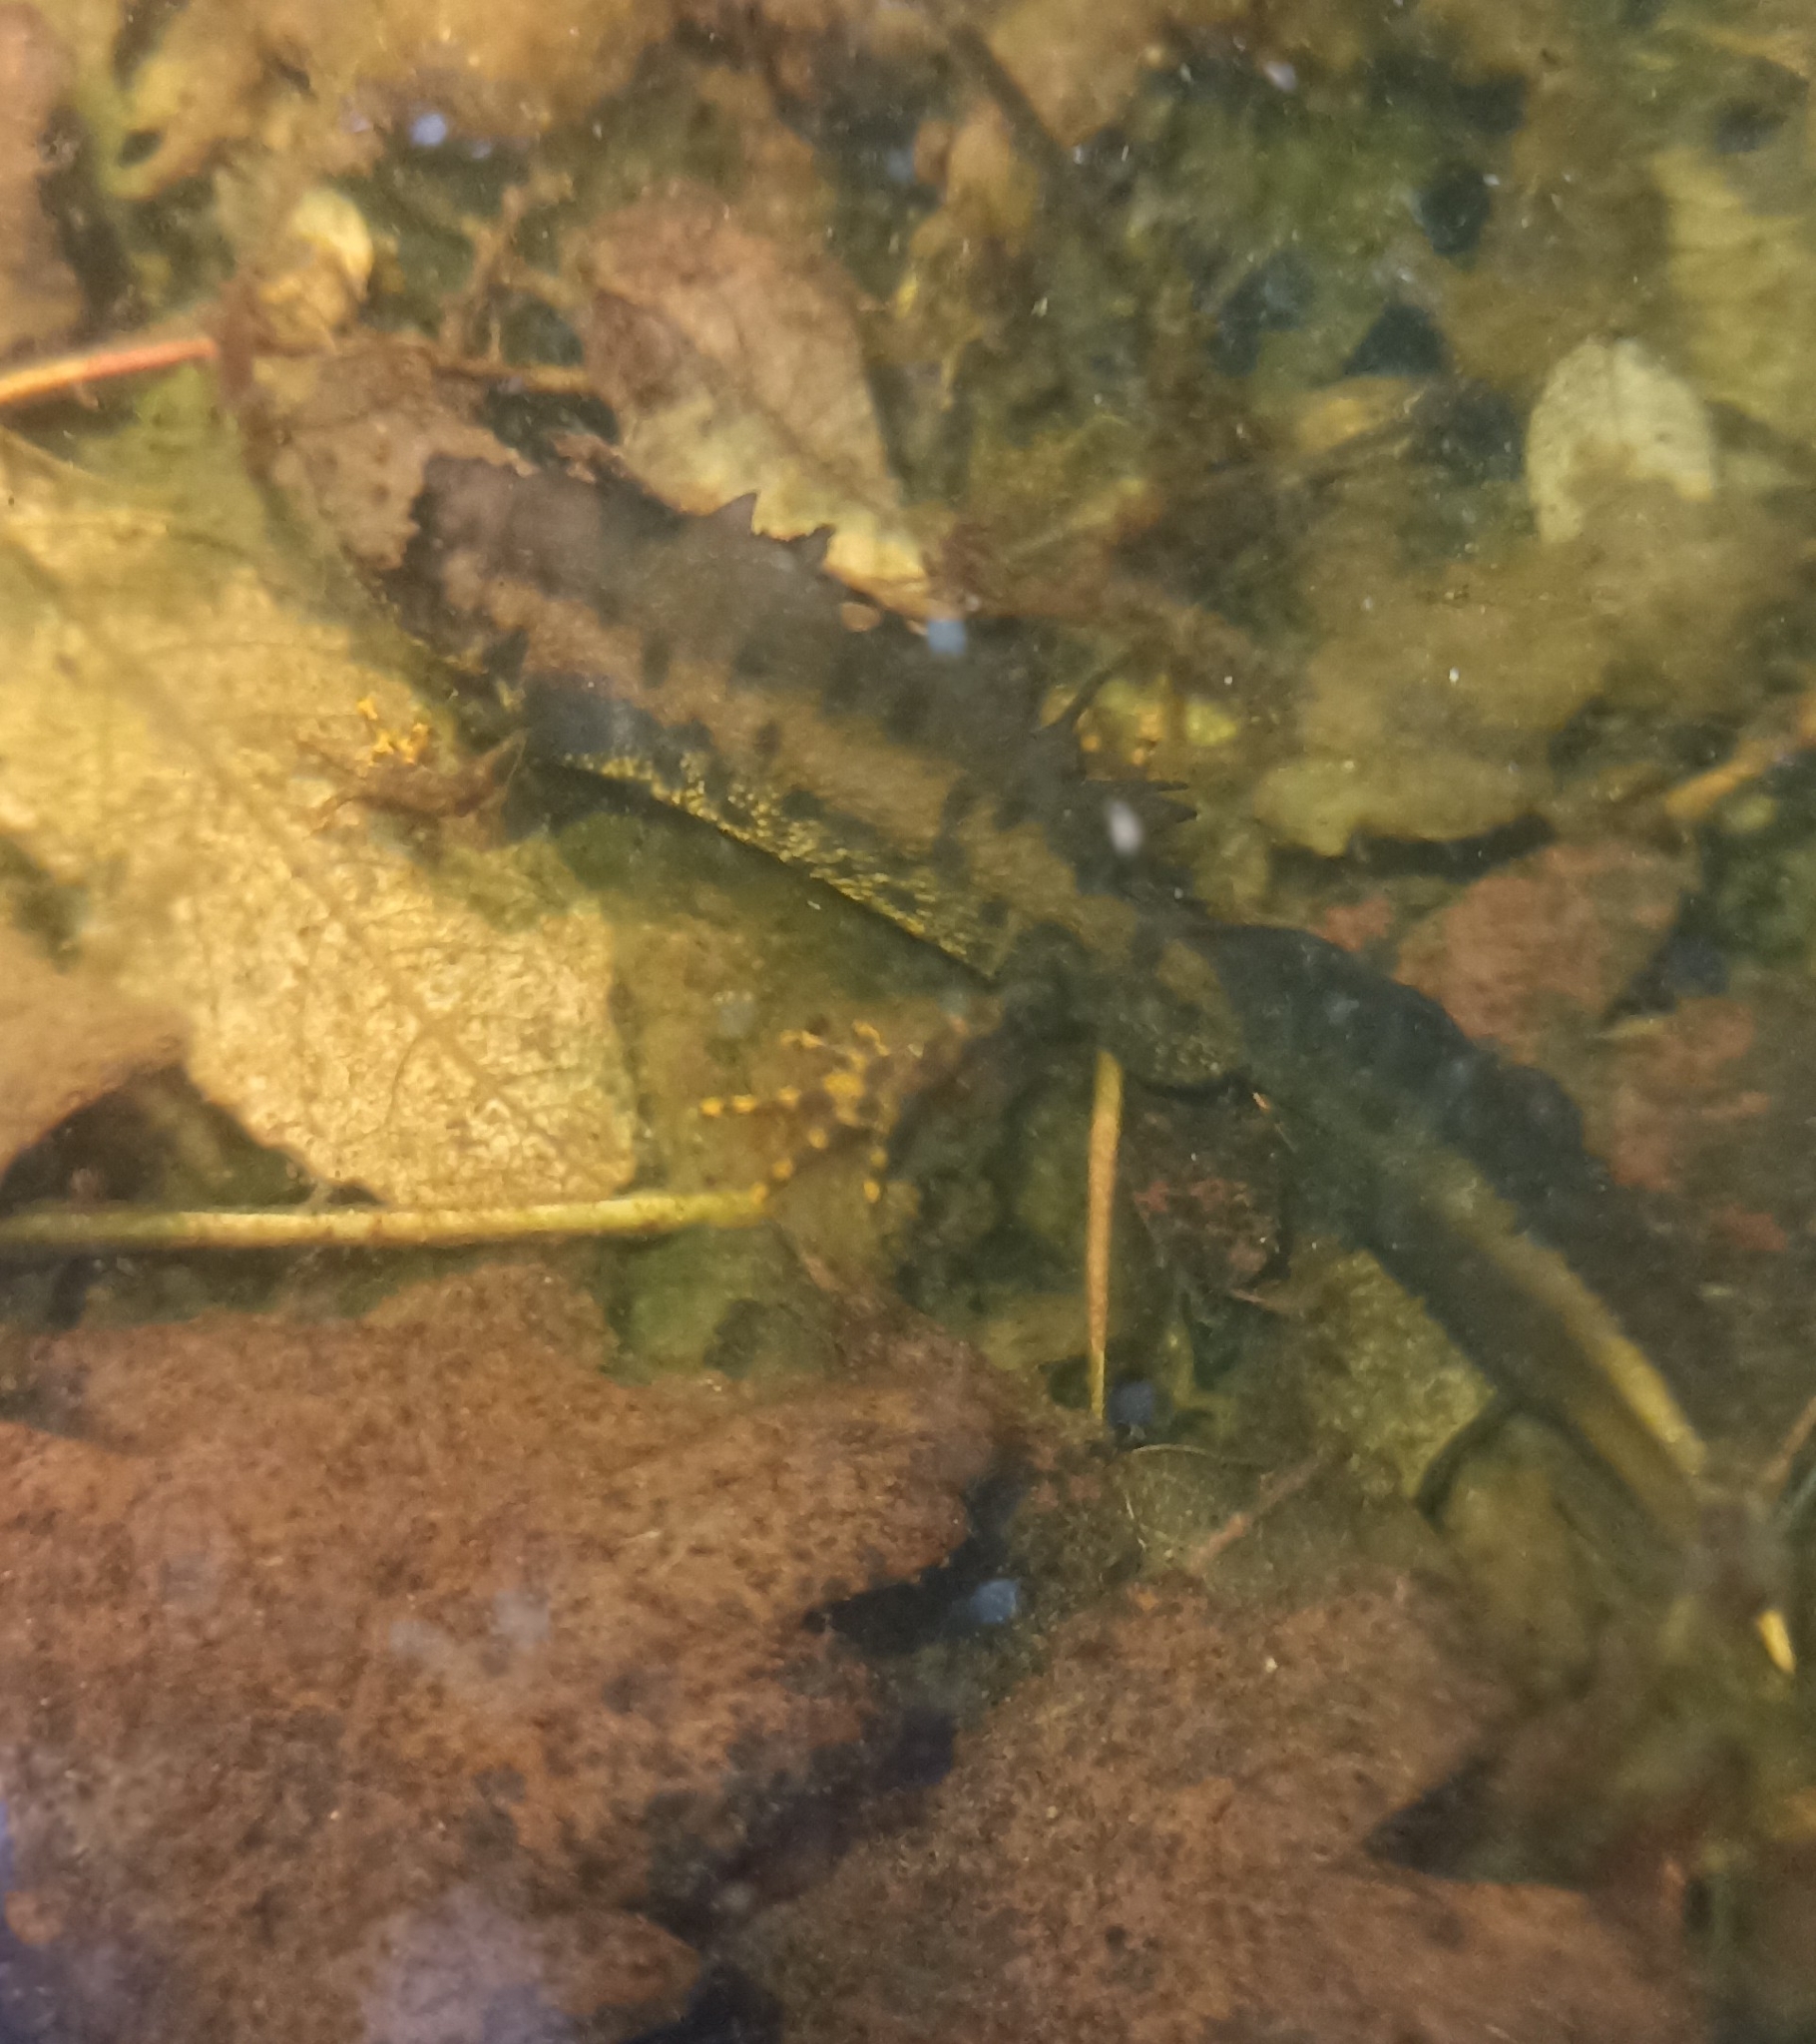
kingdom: Animalia
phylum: Chordata
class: Amphibia
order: Caudata
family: Salamandridae
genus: Triturus
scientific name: Triturus cristatus
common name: Crested newt
